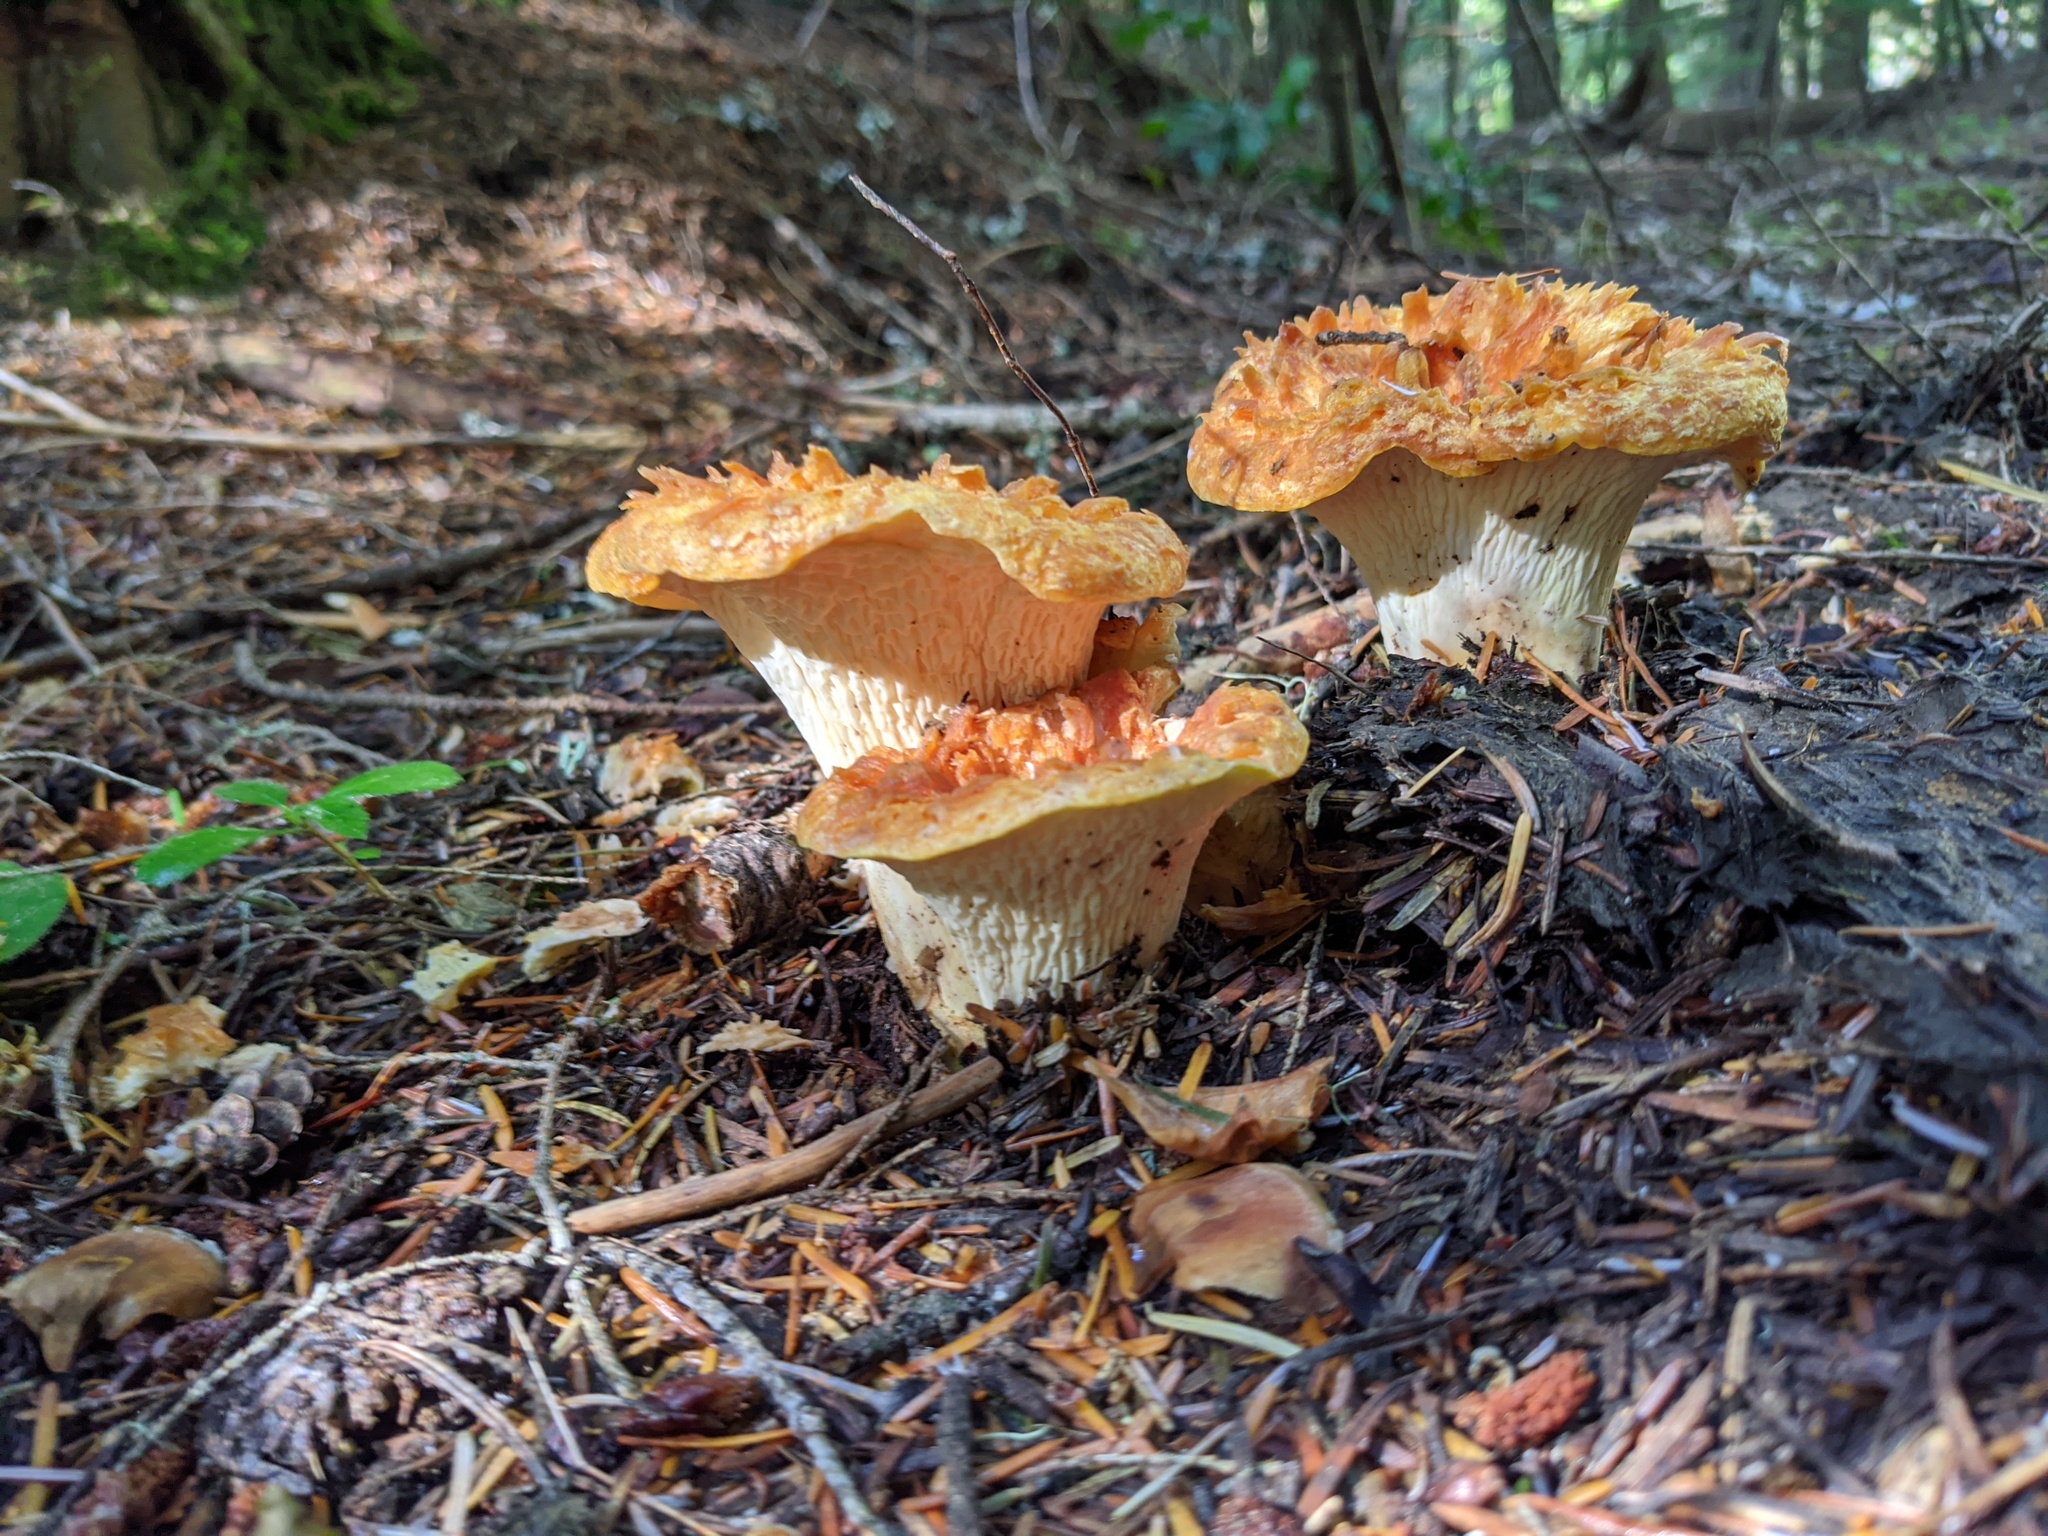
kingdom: Fungi
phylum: Basidiomycota
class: Agaricomycetes
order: Gomphales
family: Gomphaceae
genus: Turbinellus
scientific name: Turbinellus kauffmanii
